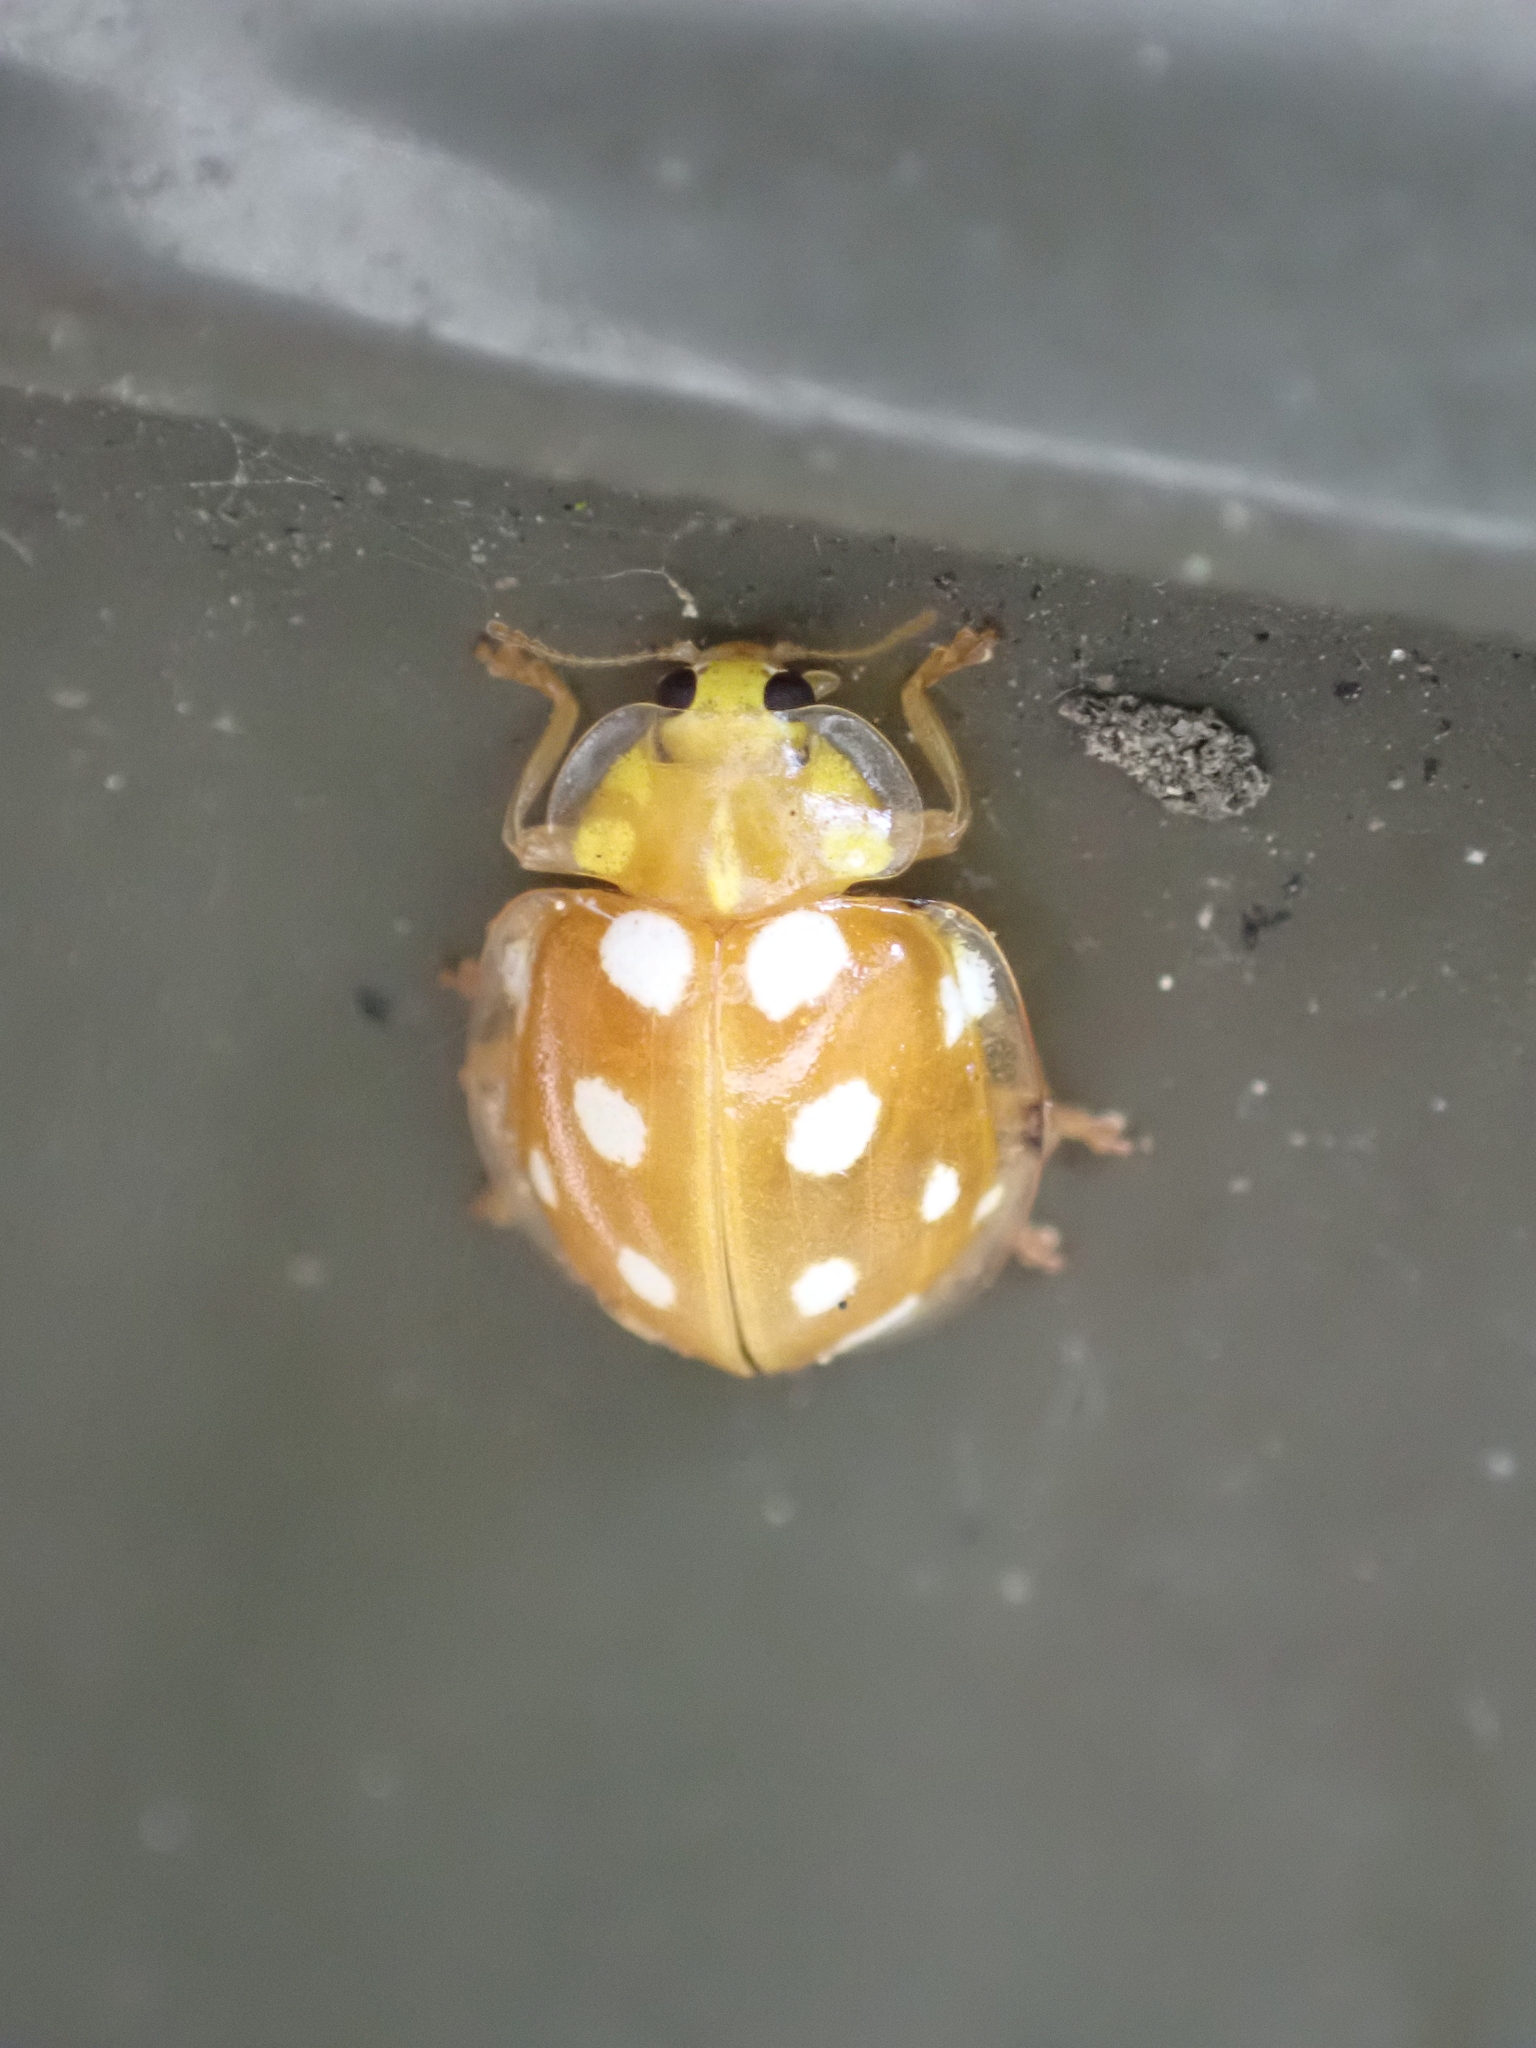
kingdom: Animalia
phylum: Arthropoda
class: Insecta
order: Coleoptera
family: Coccinellidae
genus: Halyzia
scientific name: Halyzia sedecimguttata
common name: Orange ladybird
